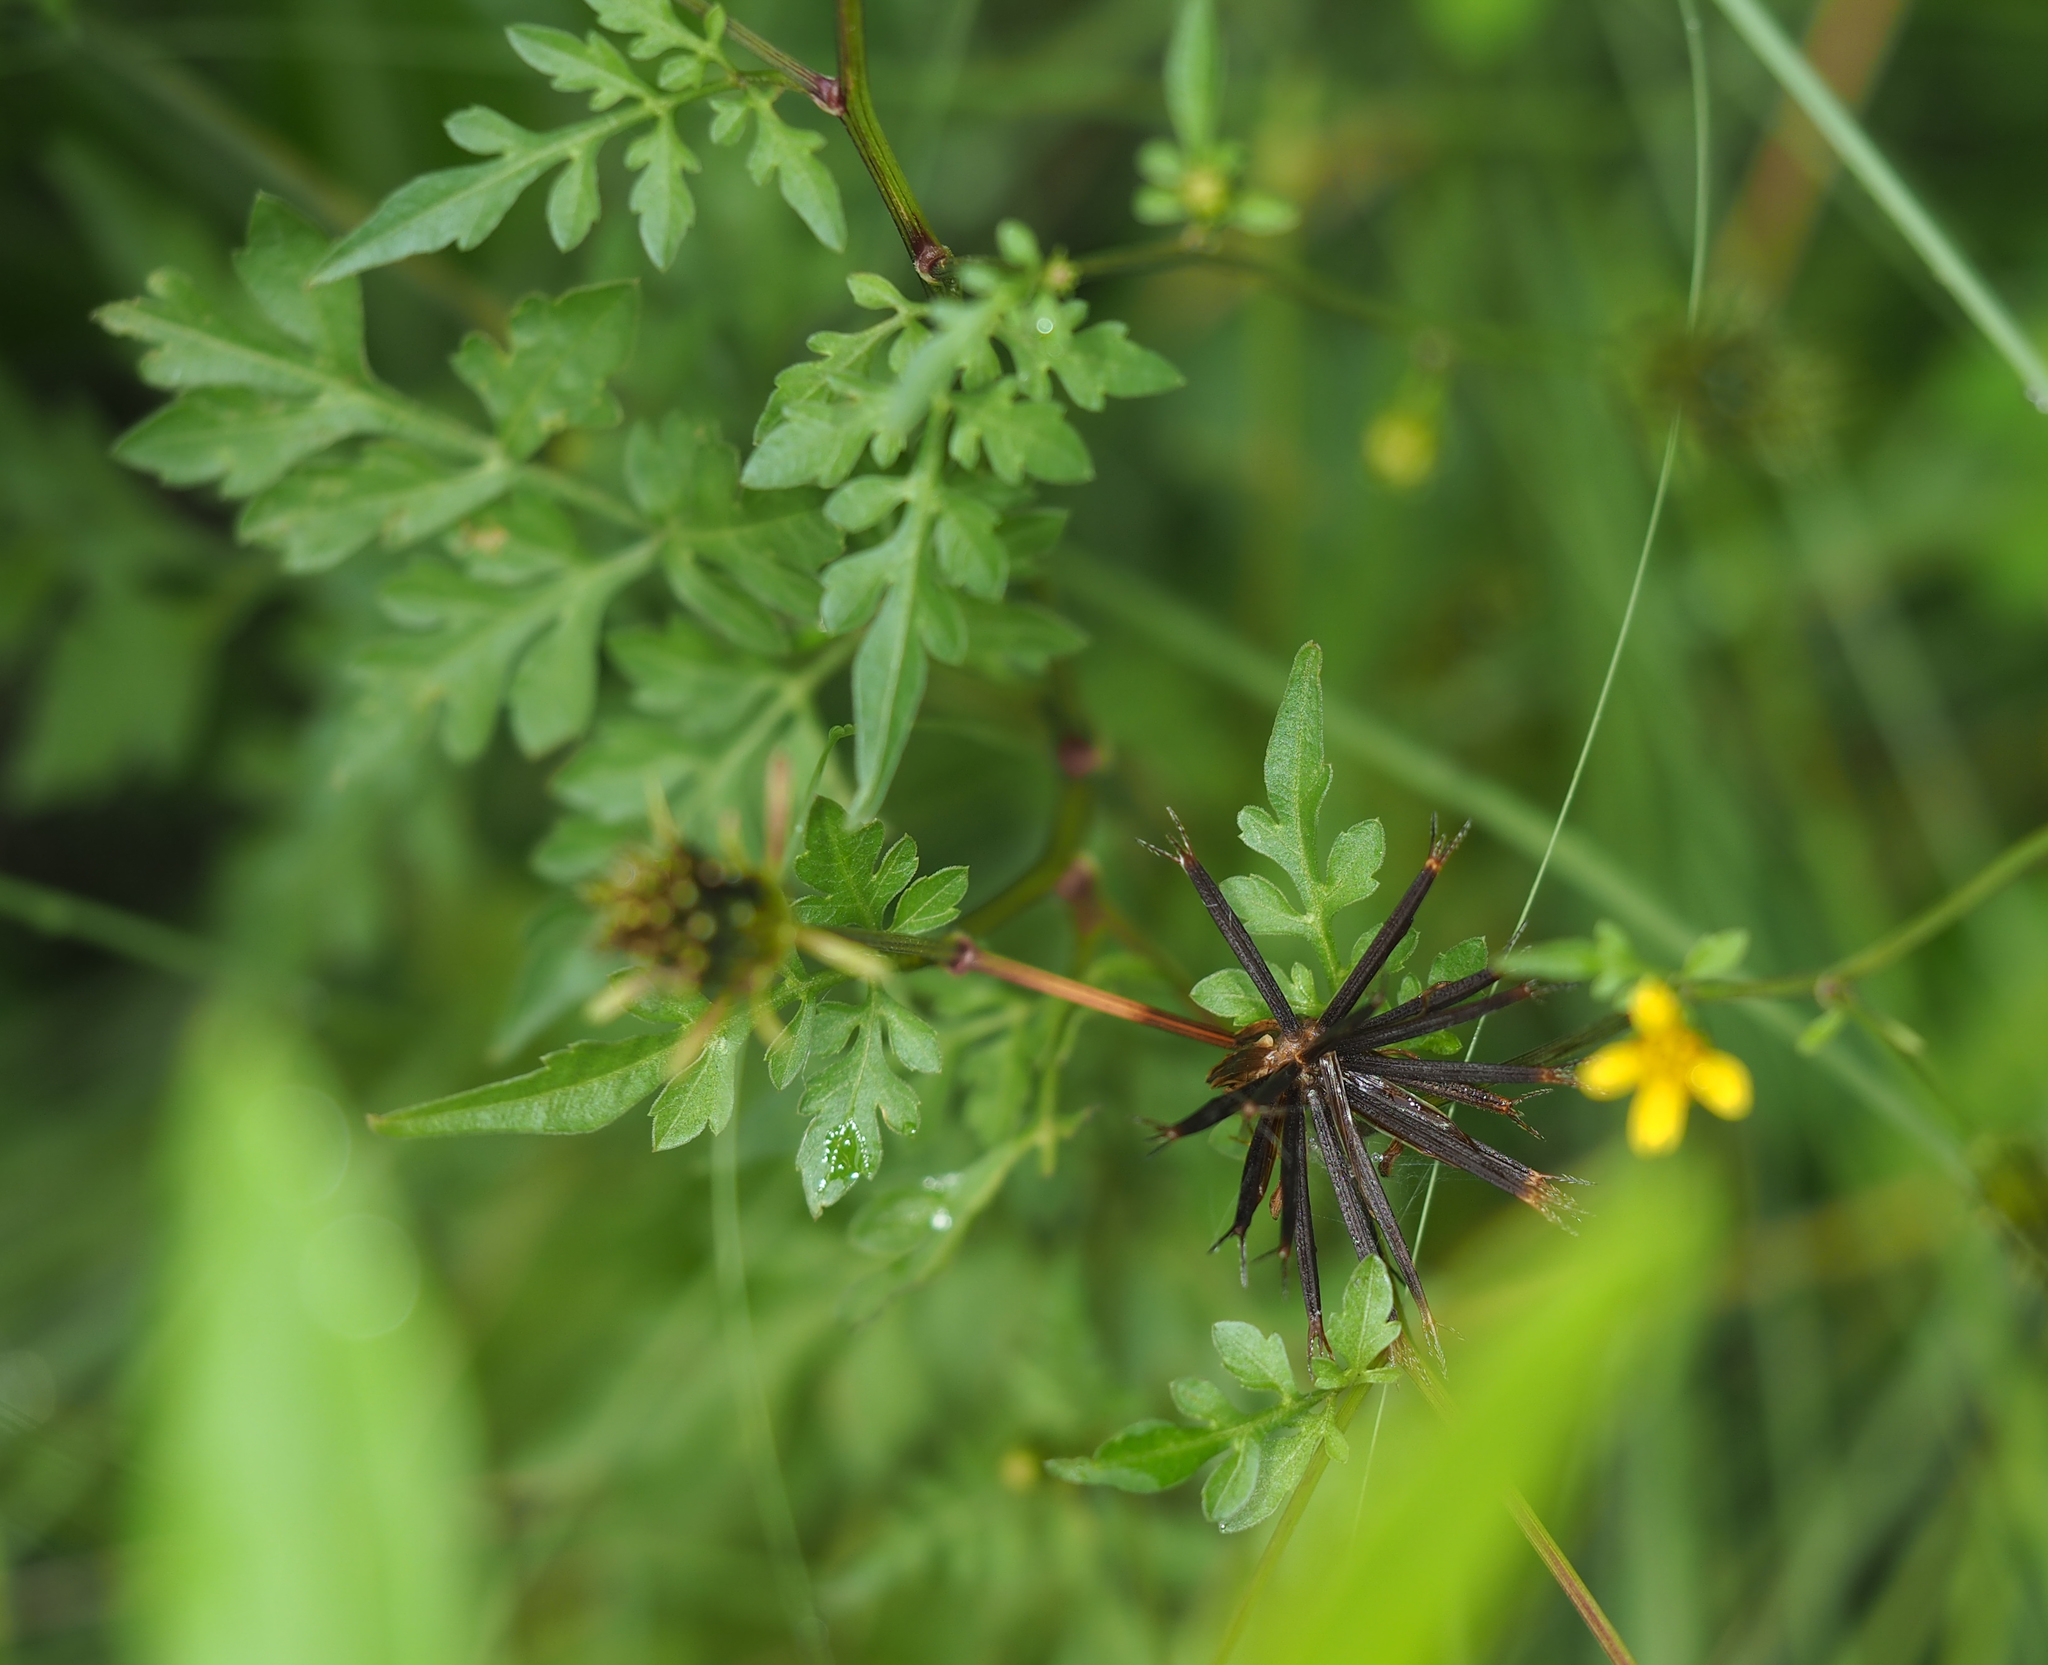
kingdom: Plantae
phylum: Tracheophyta
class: Magnoliopsida
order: Asterales
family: Asteraceae
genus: Bidens
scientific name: Bidens bipinnata
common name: Spanish-needles
